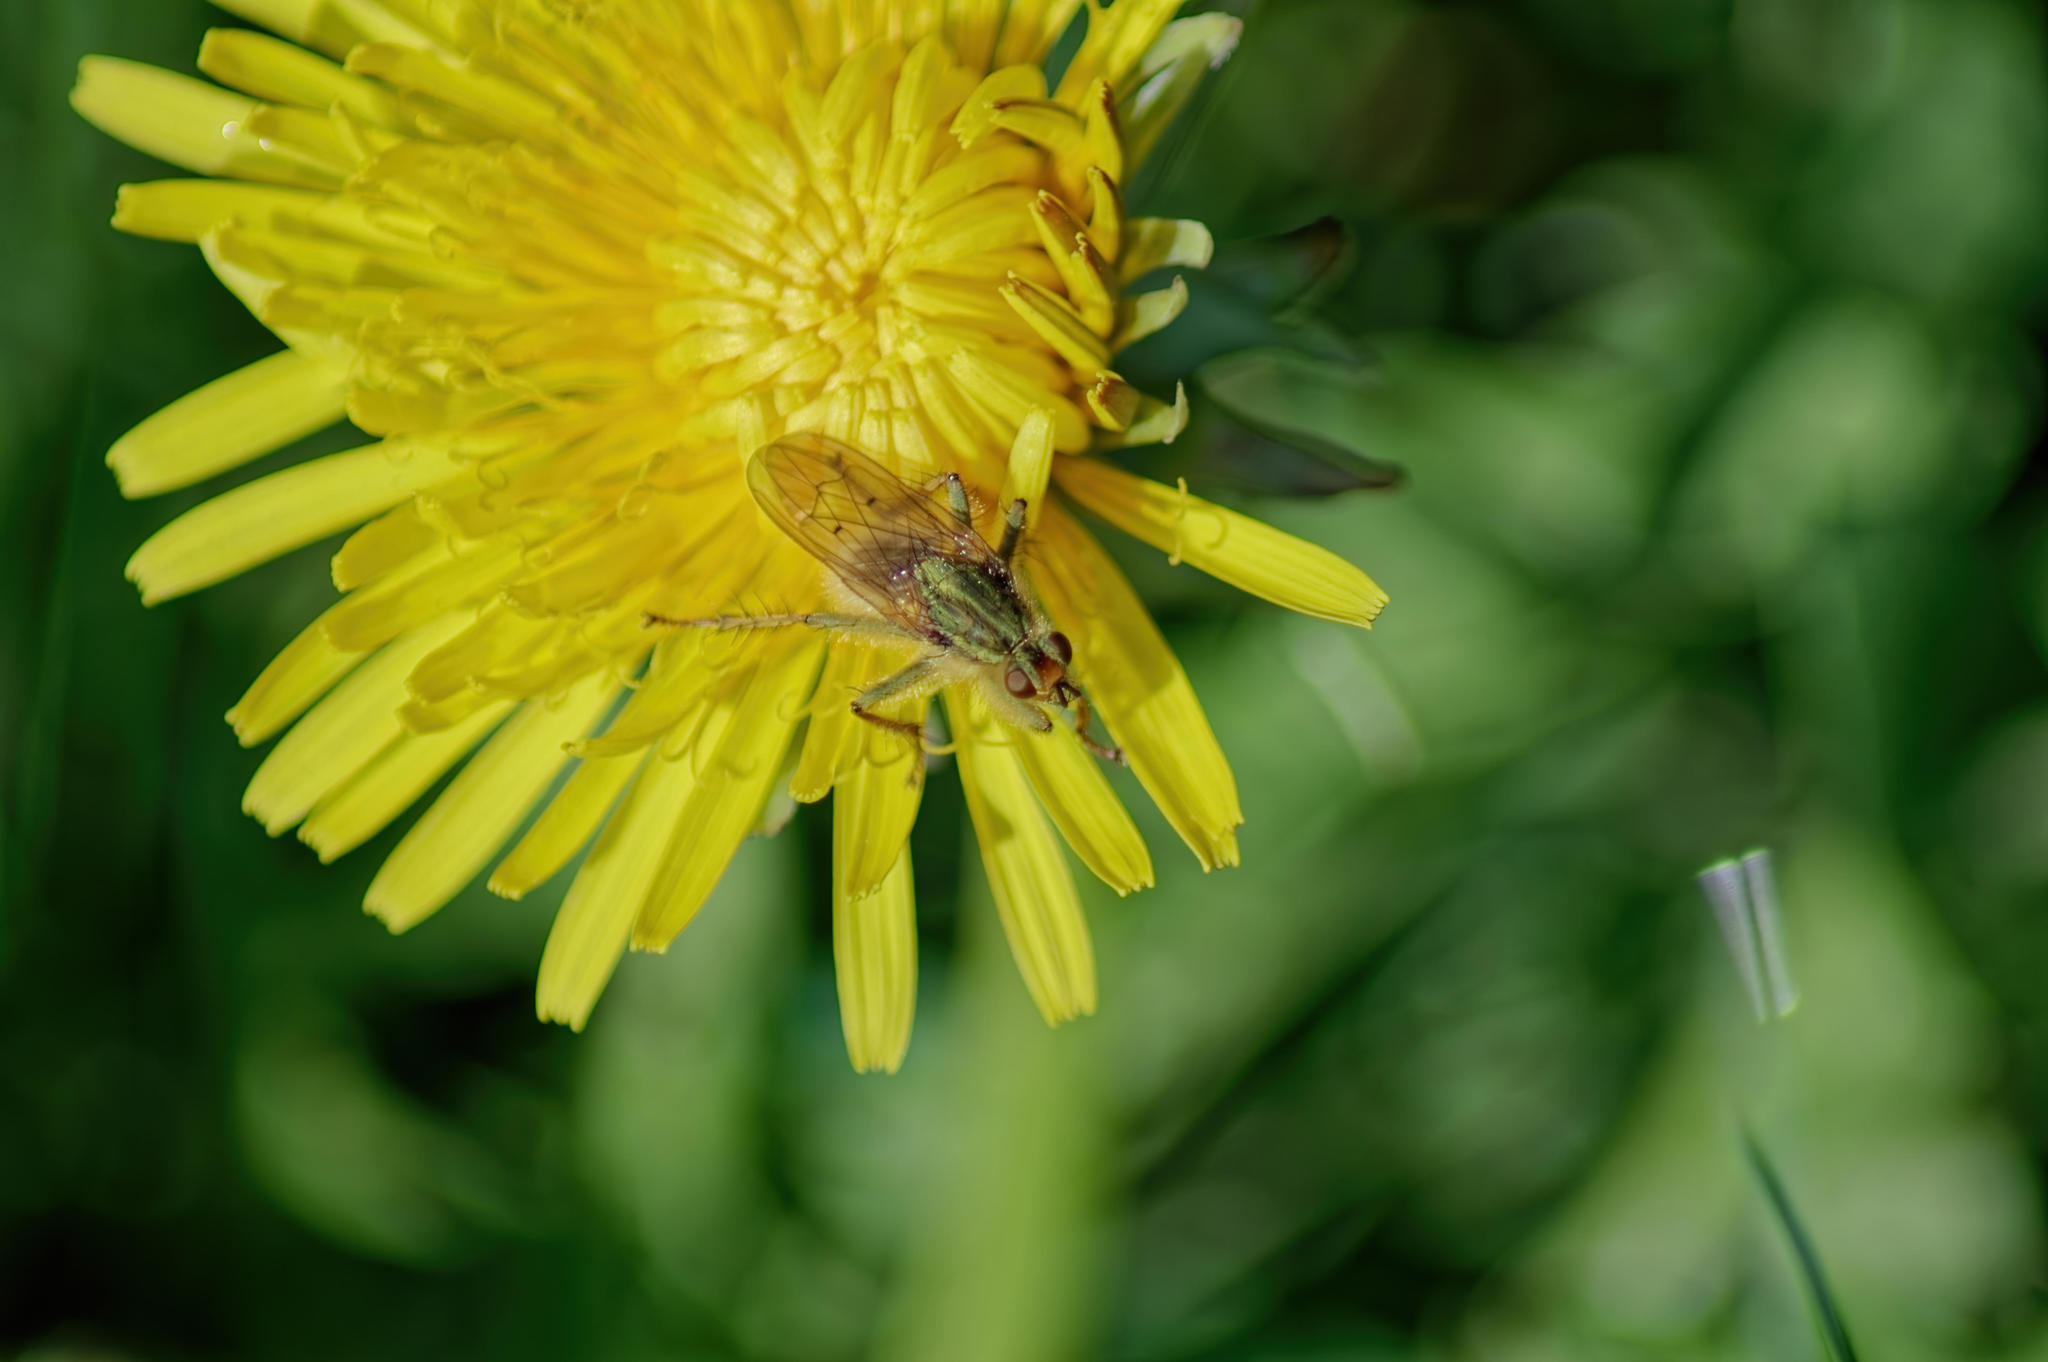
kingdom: Animalia
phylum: Arthropoda
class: Insecta
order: Diptera
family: Scathophagidae
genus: Scathophaga
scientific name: Scathophaga stercoraria
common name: Yellow dung fly
